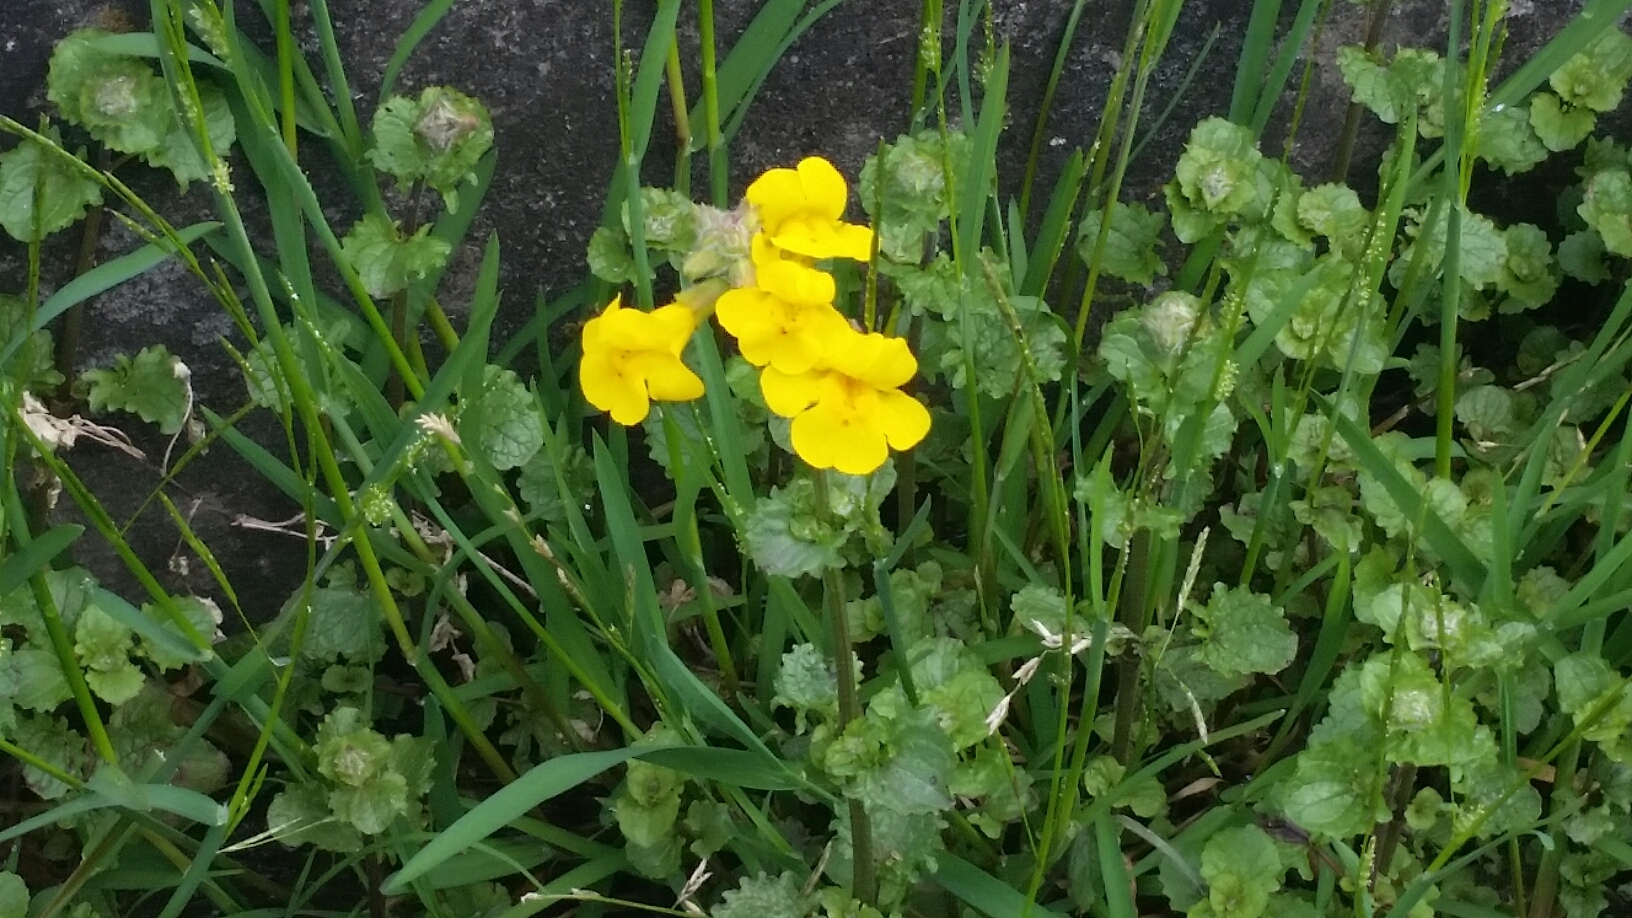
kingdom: Plantae
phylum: Tracheophyta
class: Magnoliopsida
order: Lamiales
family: Phrymaceae
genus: Erythranthe
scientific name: Erythranthe guttata
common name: Monkeyflower
